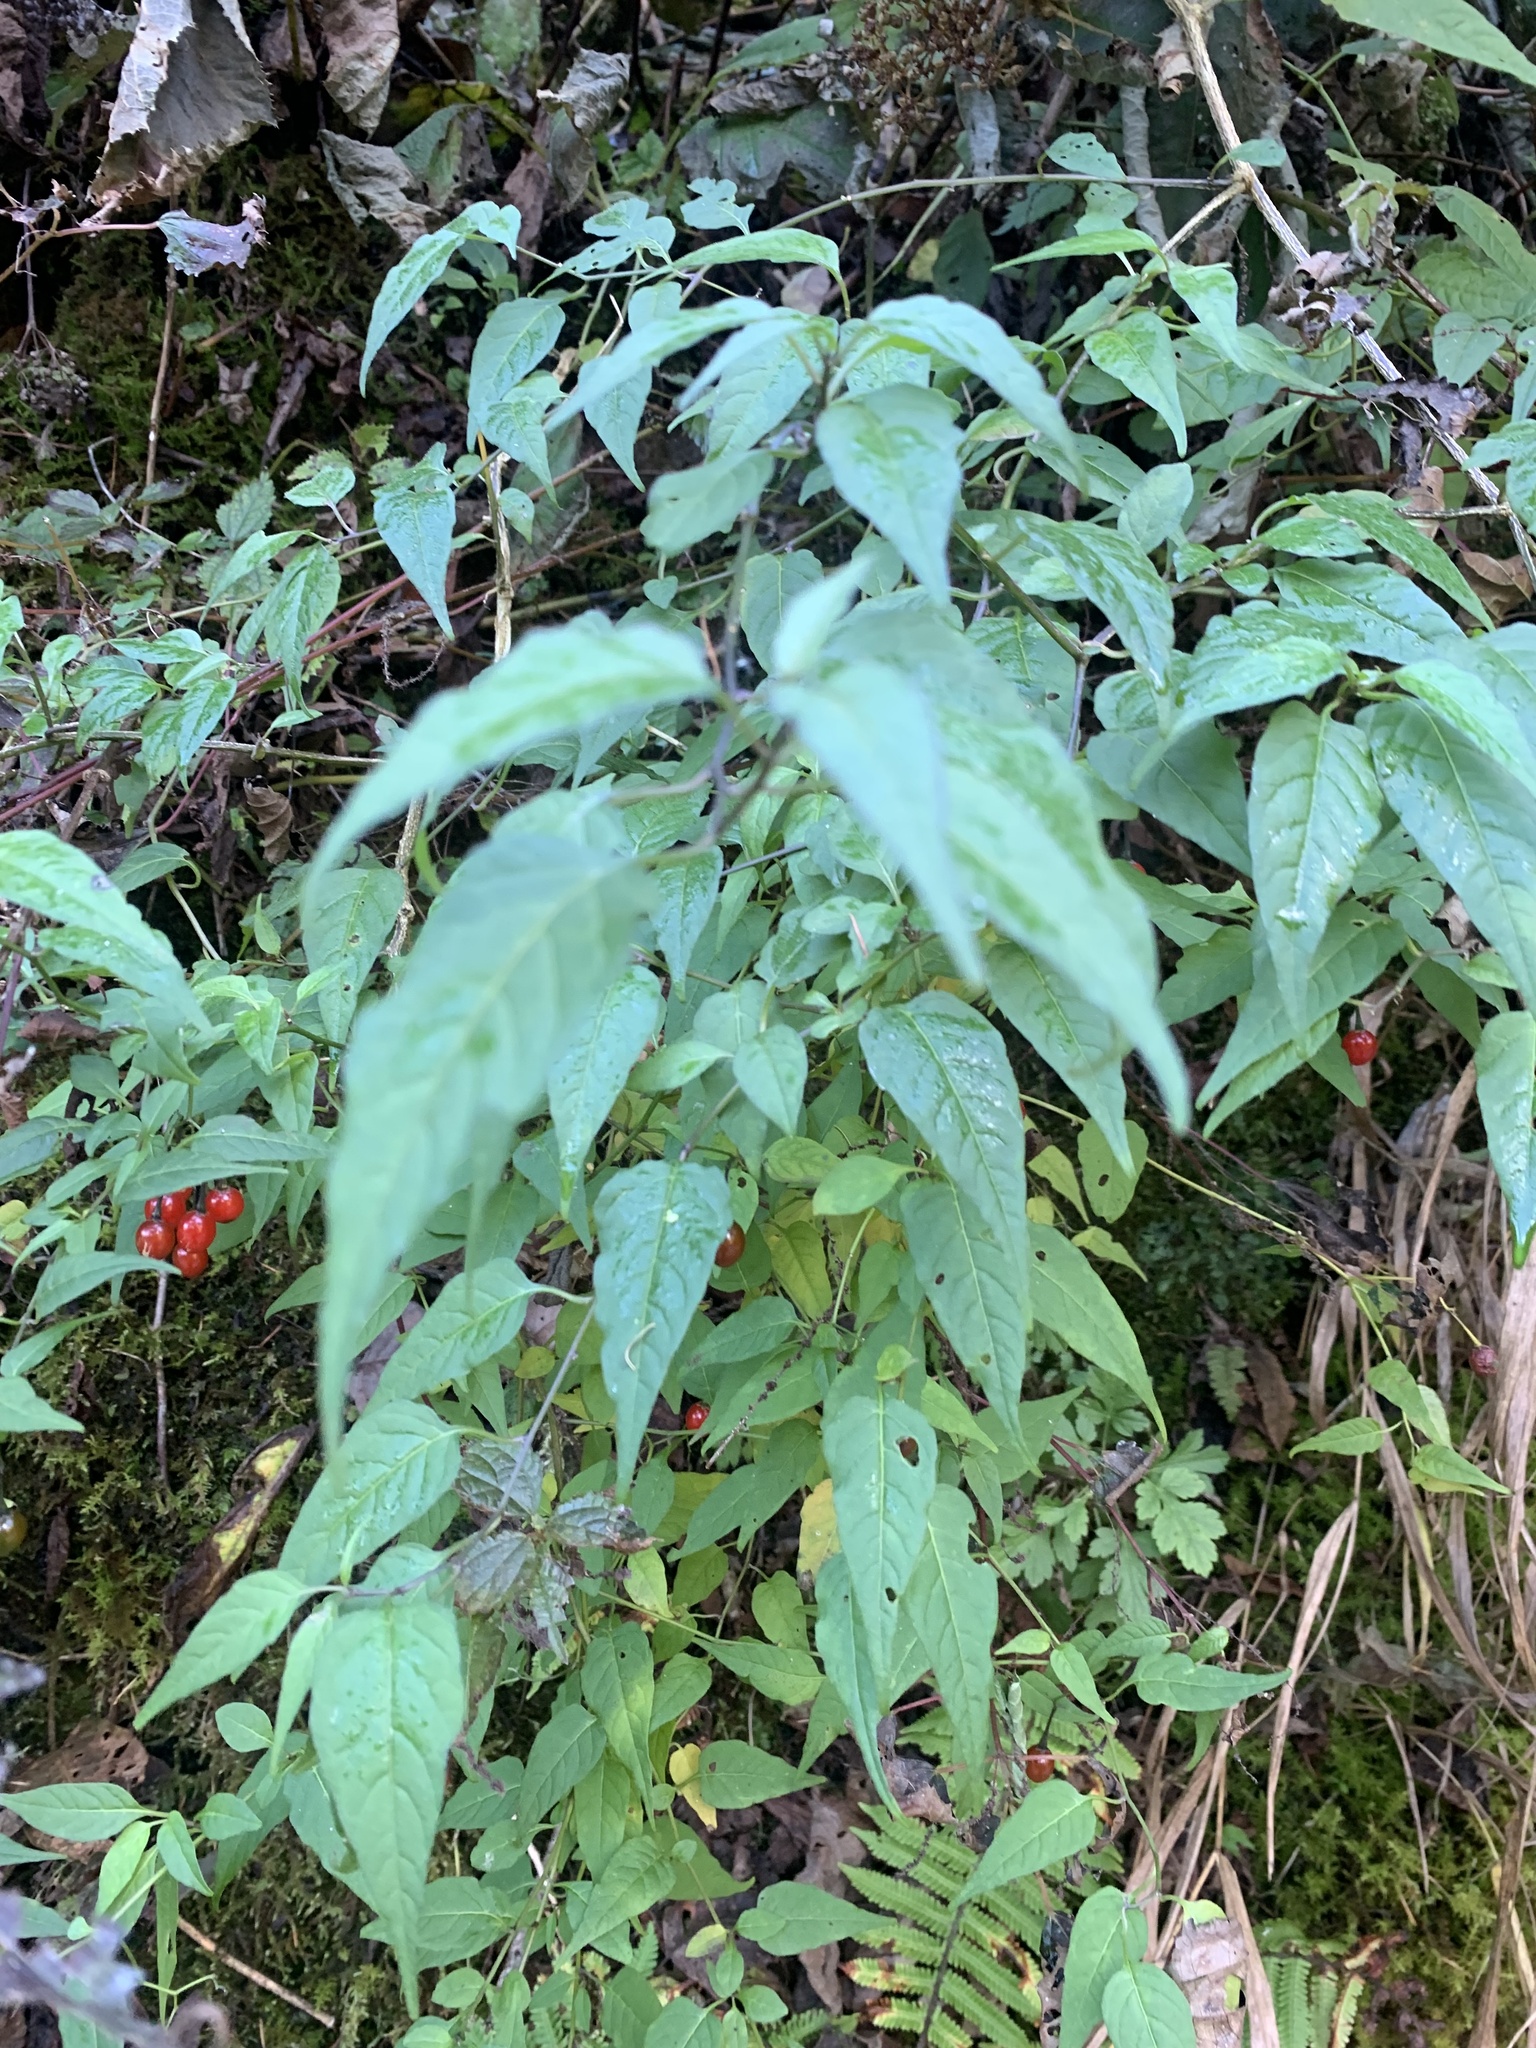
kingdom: Plantae
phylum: Tracheophyta
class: Magnoliopsida
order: Solanales
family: Solanaceae
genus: Solanum
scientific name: Solanum pittosporifolium
